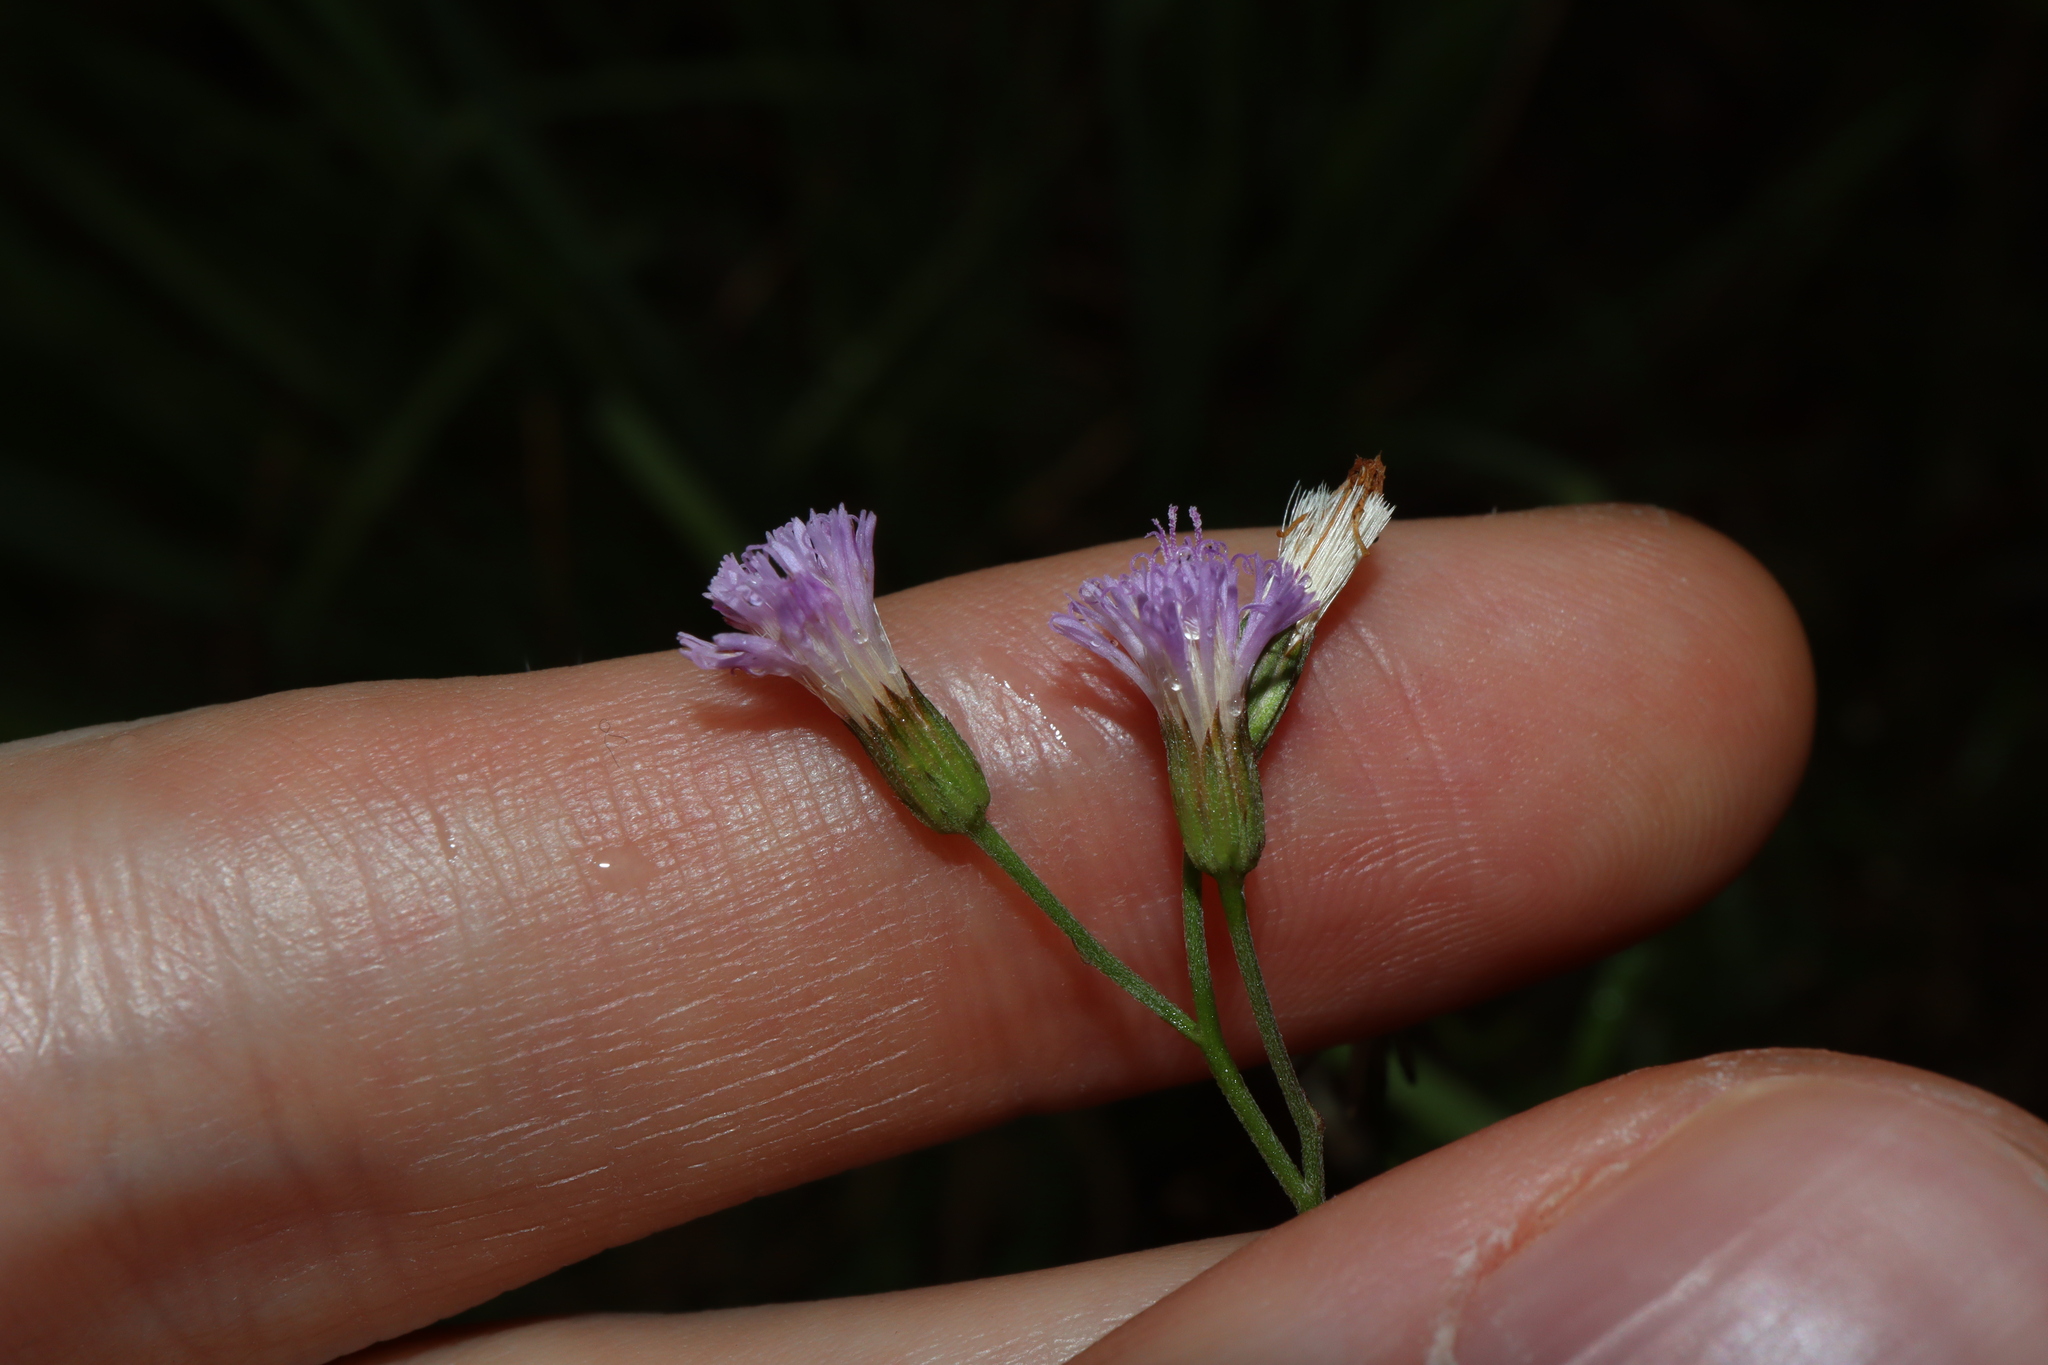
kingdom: Plantae
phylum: Tracheophyta
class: Magnoliopsida
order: Asterales
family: Asteraceae
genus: Cyanthillium
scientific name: Cyanthillium cinereum
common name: Little ironweed
